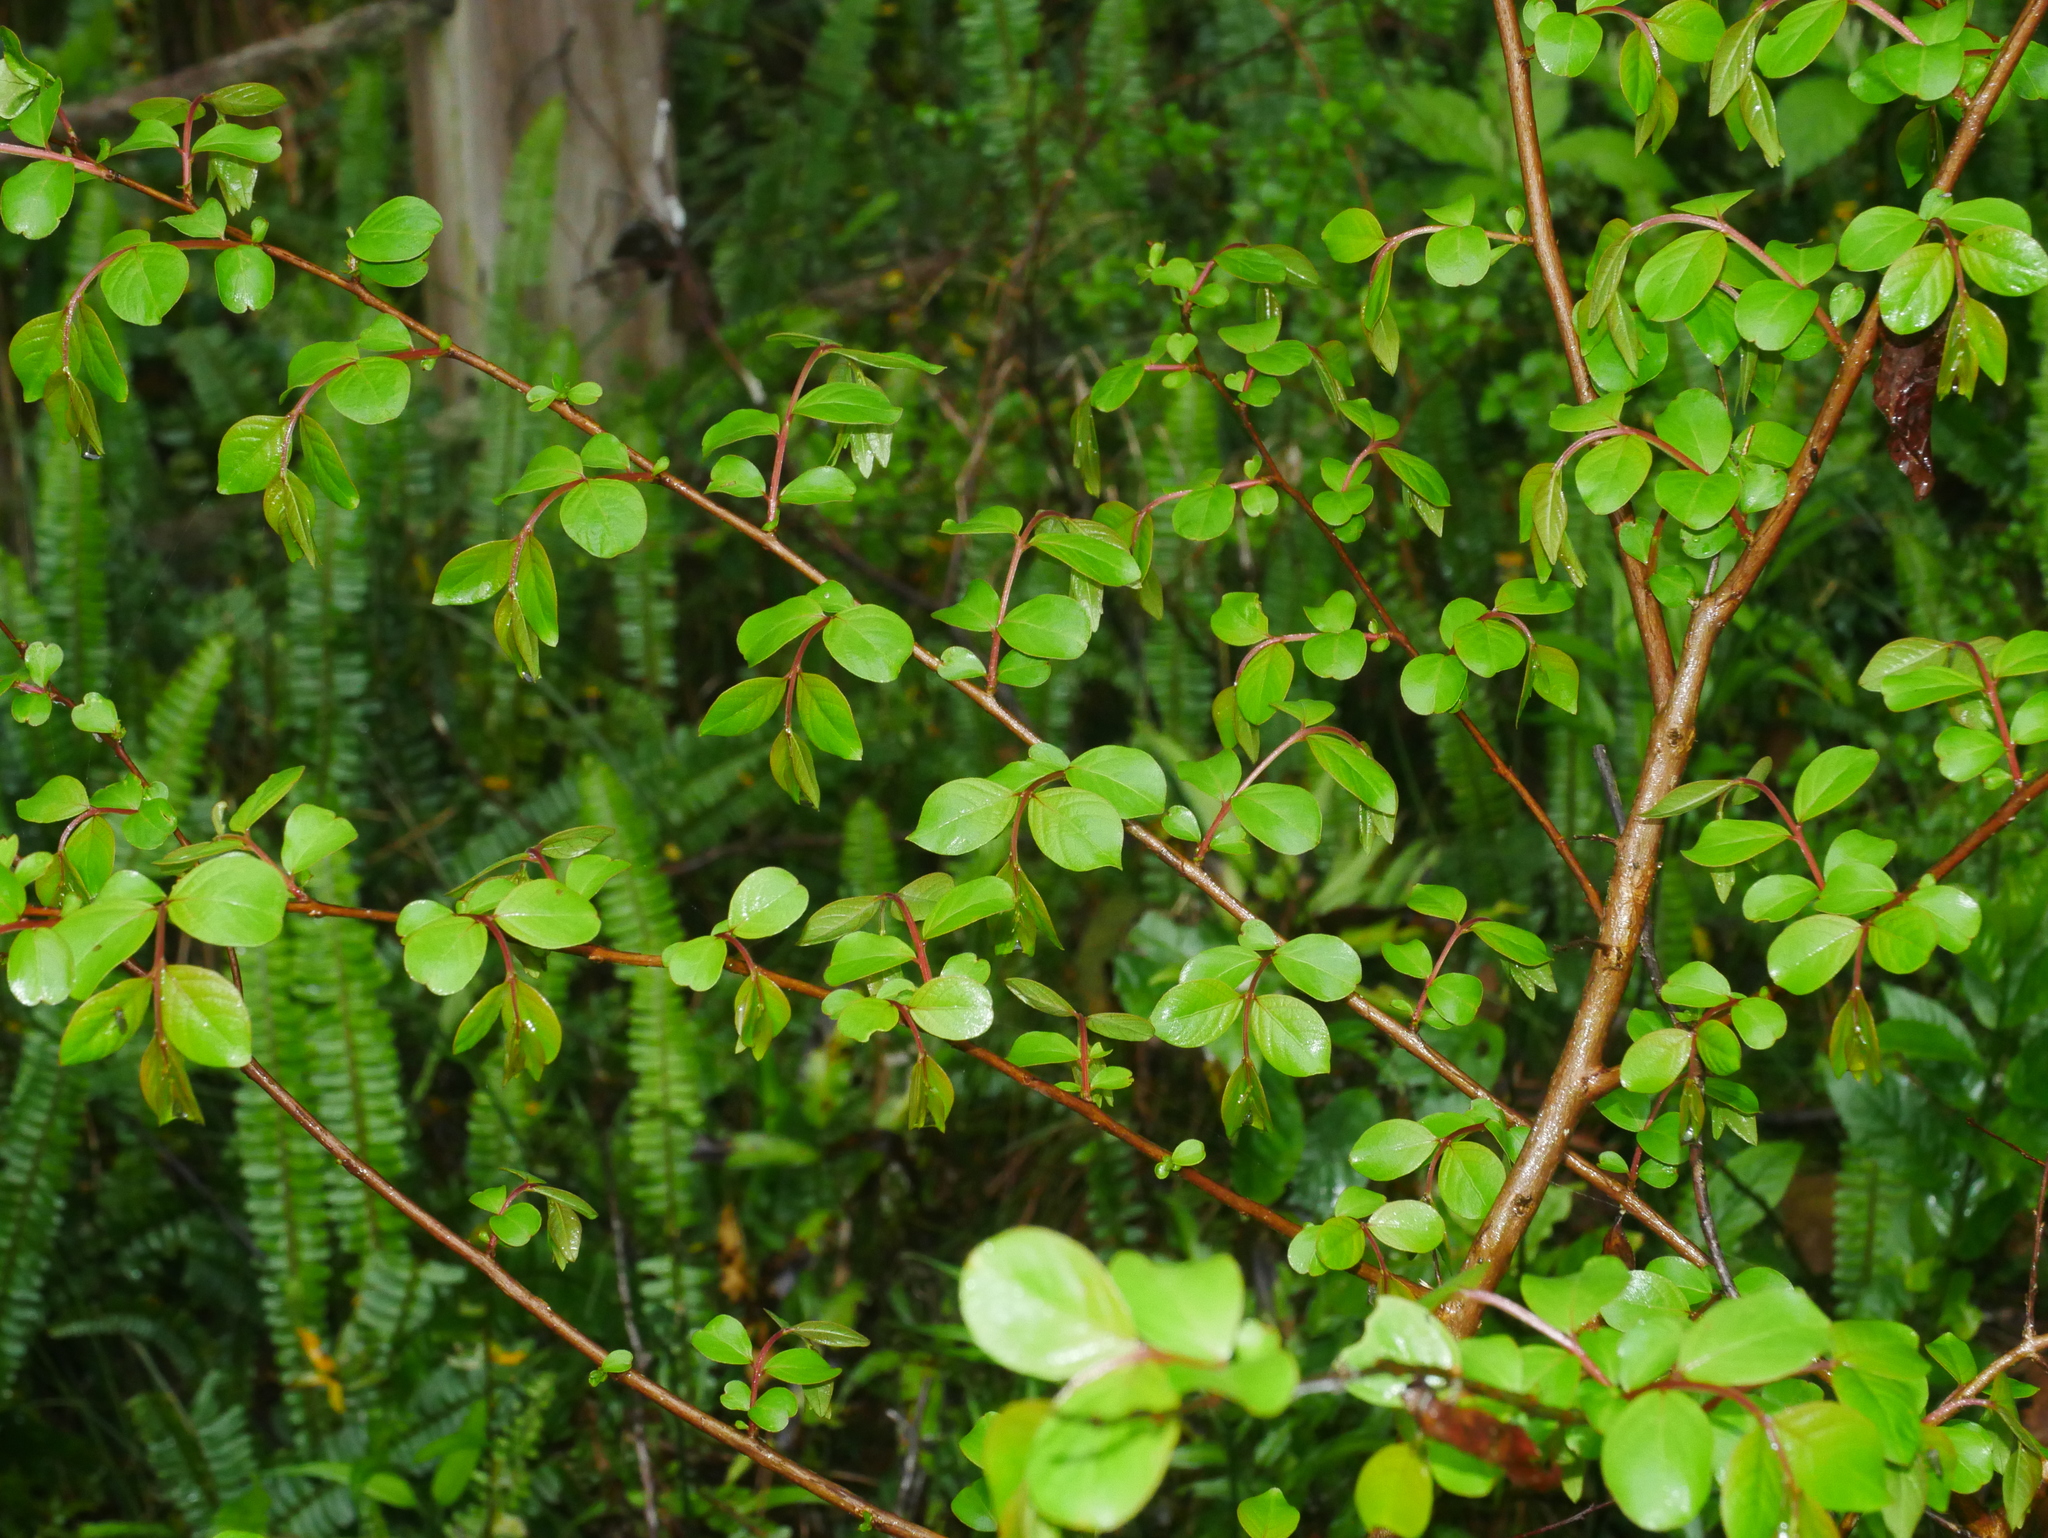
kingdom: Plantae
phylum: Tracheophyta
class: Magnoliopsida
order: Myrtales
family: Lythraceae
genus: Lagerstroemia
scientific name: Lagerstroemia subcostata
